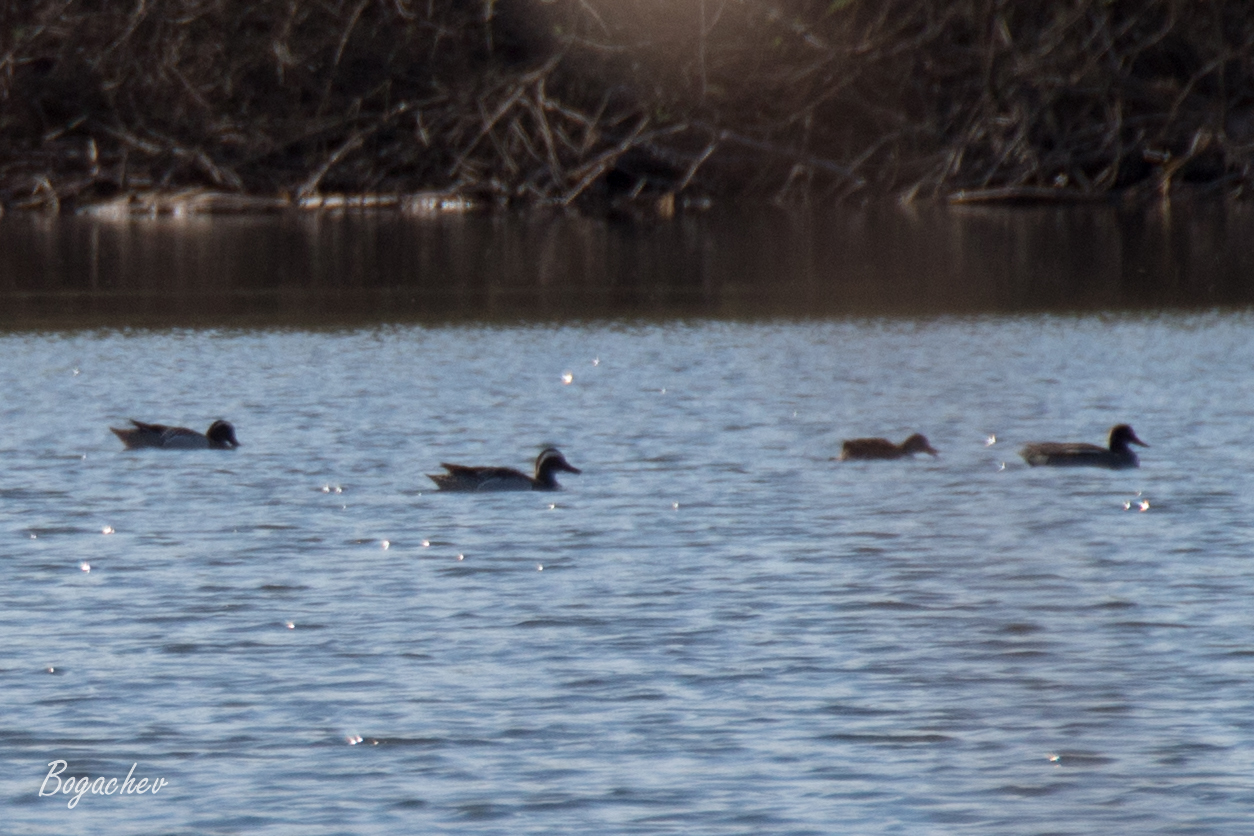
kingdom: Animalia
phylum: Chordata
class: Aves
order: Anseriformes
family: Anatidae
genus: Spatula
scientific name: Spatula querquedula
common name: Garganey
